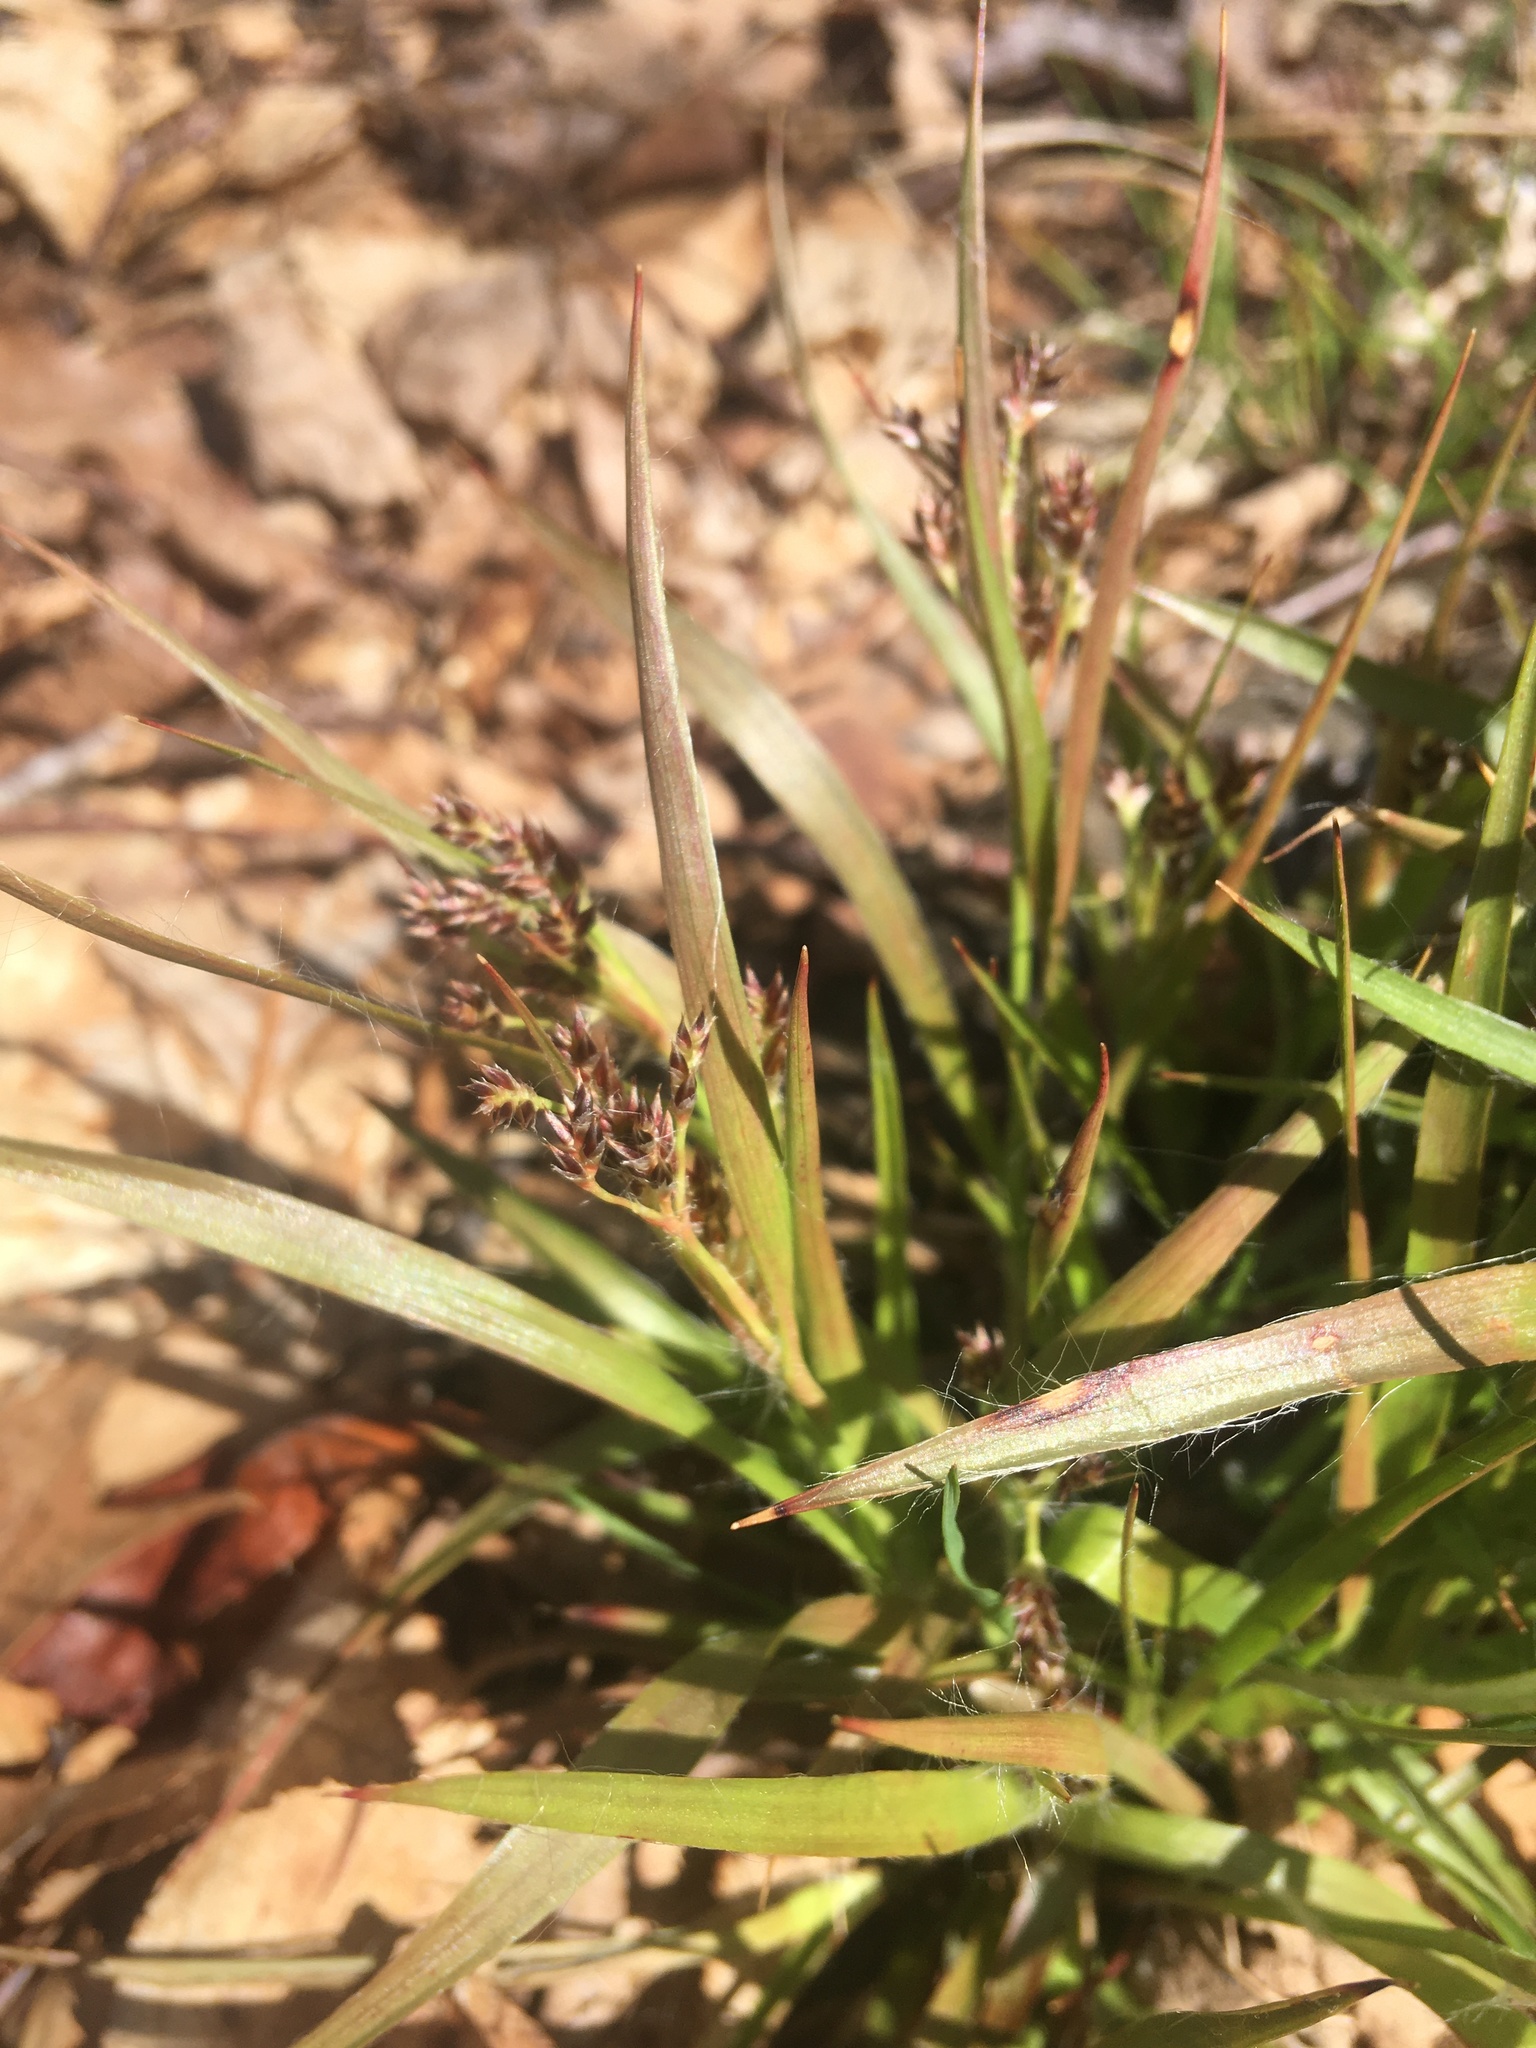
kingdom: Plantae
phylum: Tracheophyta
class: Liliopsida
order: Poales
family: Juncaceae
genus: Luzula
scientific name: Luzula multiflora
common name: Heath wood-rush
